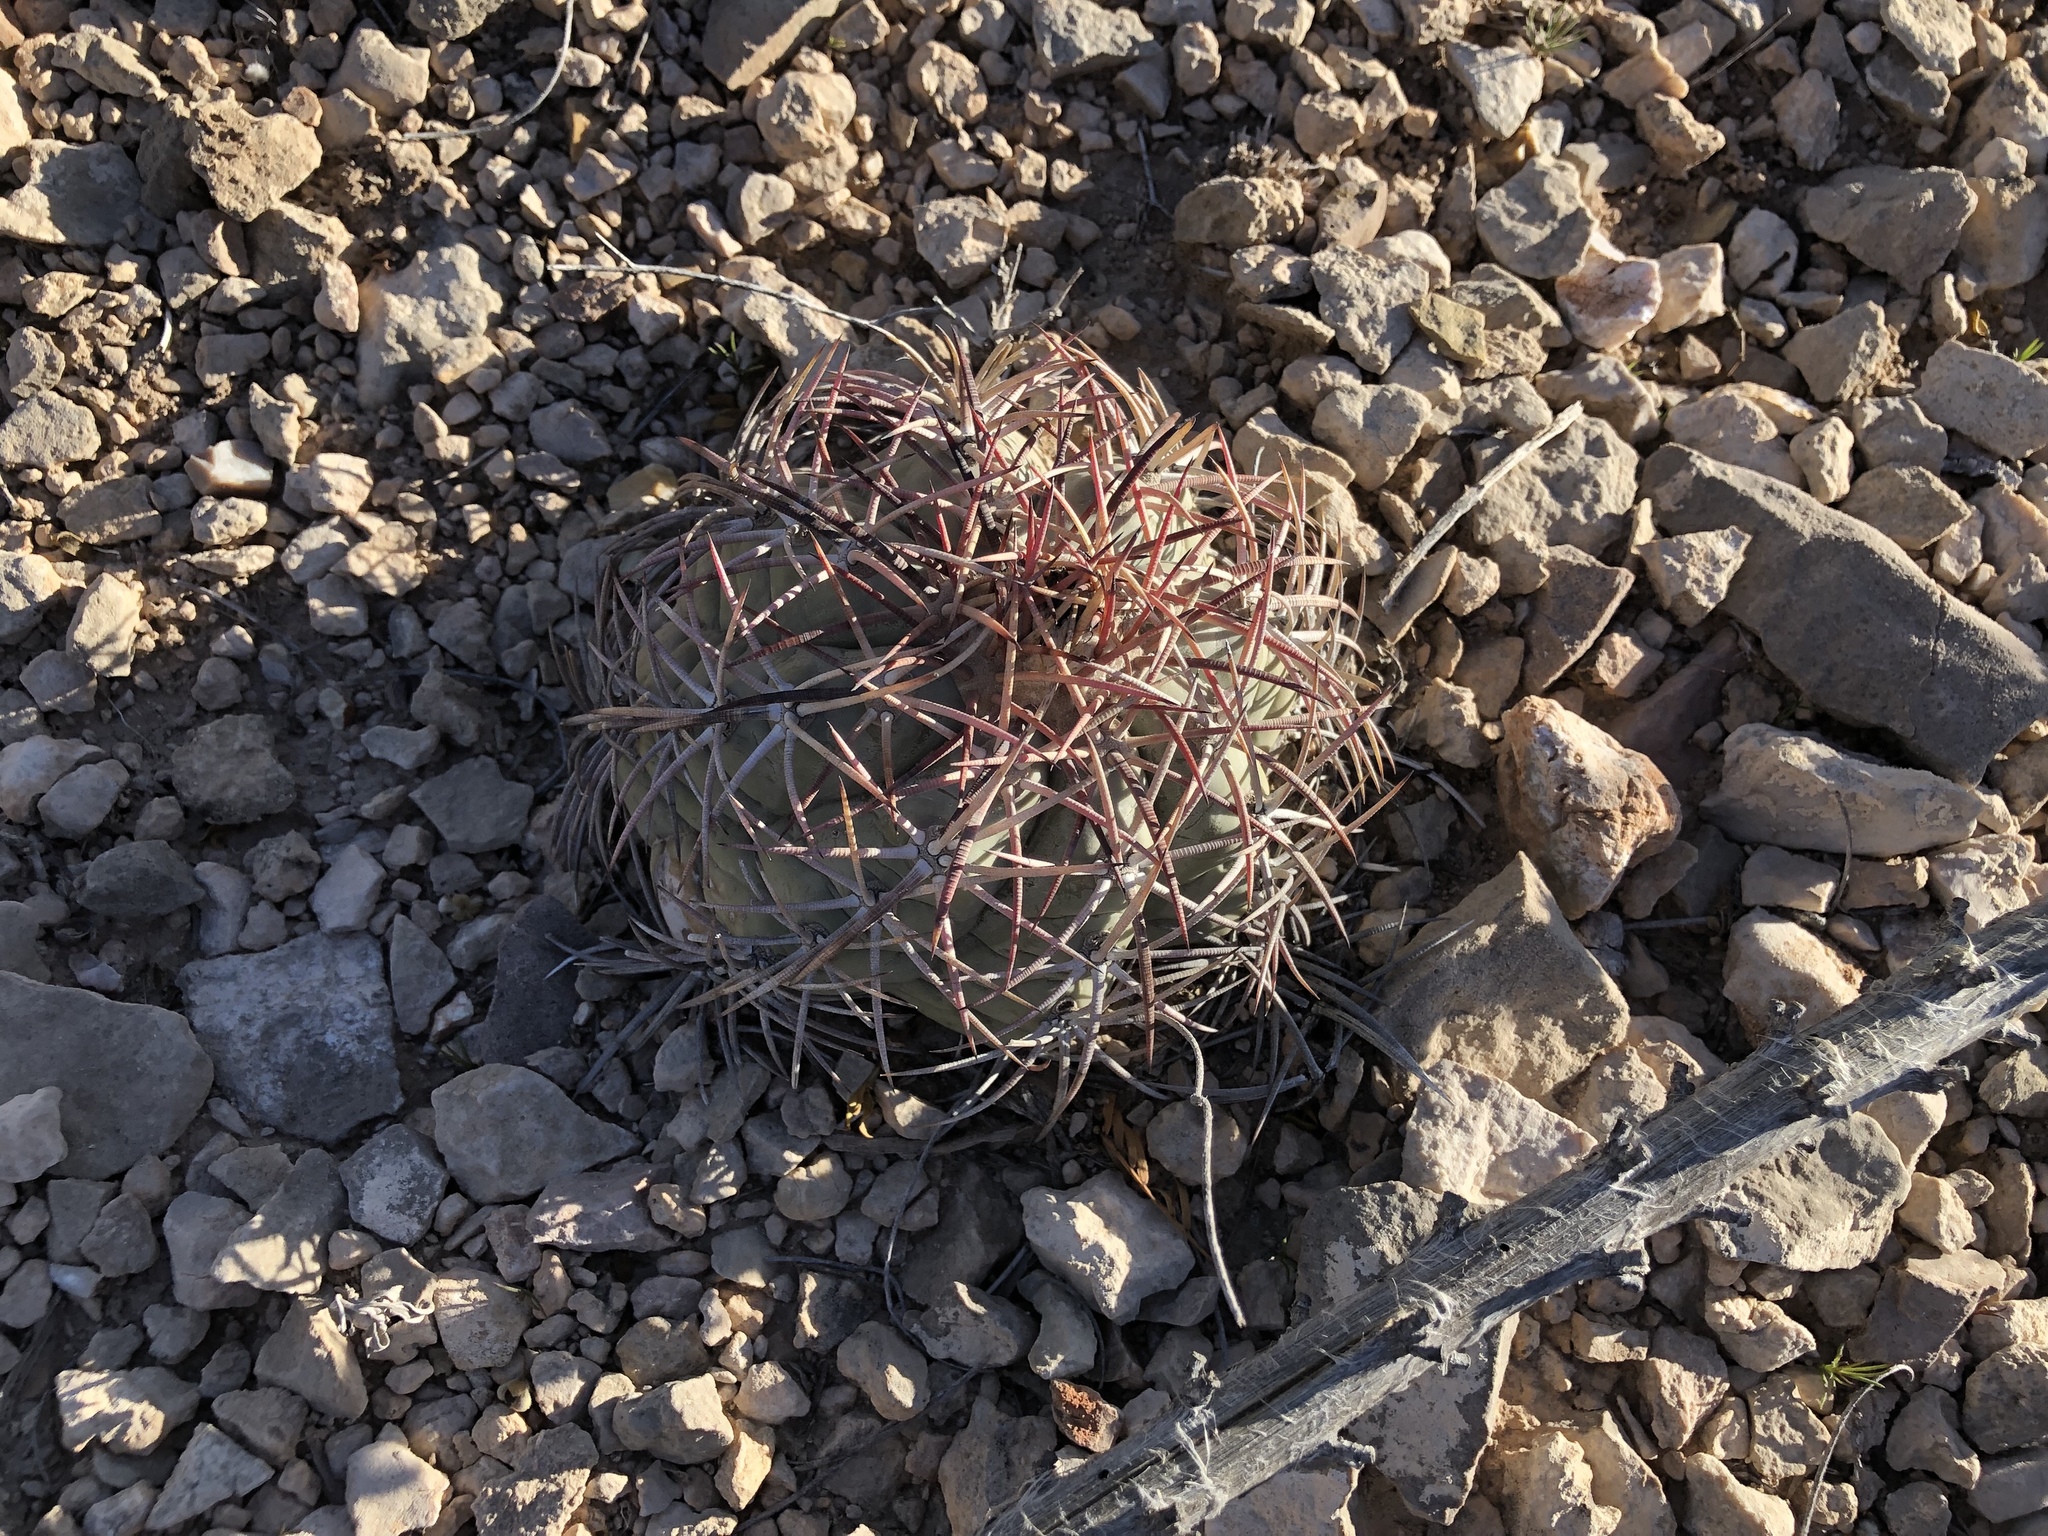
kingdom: Plantae
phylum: Tracheophyta
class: Magnoliopsida
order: Caryophyllales
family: Cactaceae
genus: Echinocactus
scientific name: Echinocactus horizonthalonius
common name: Devilshead
